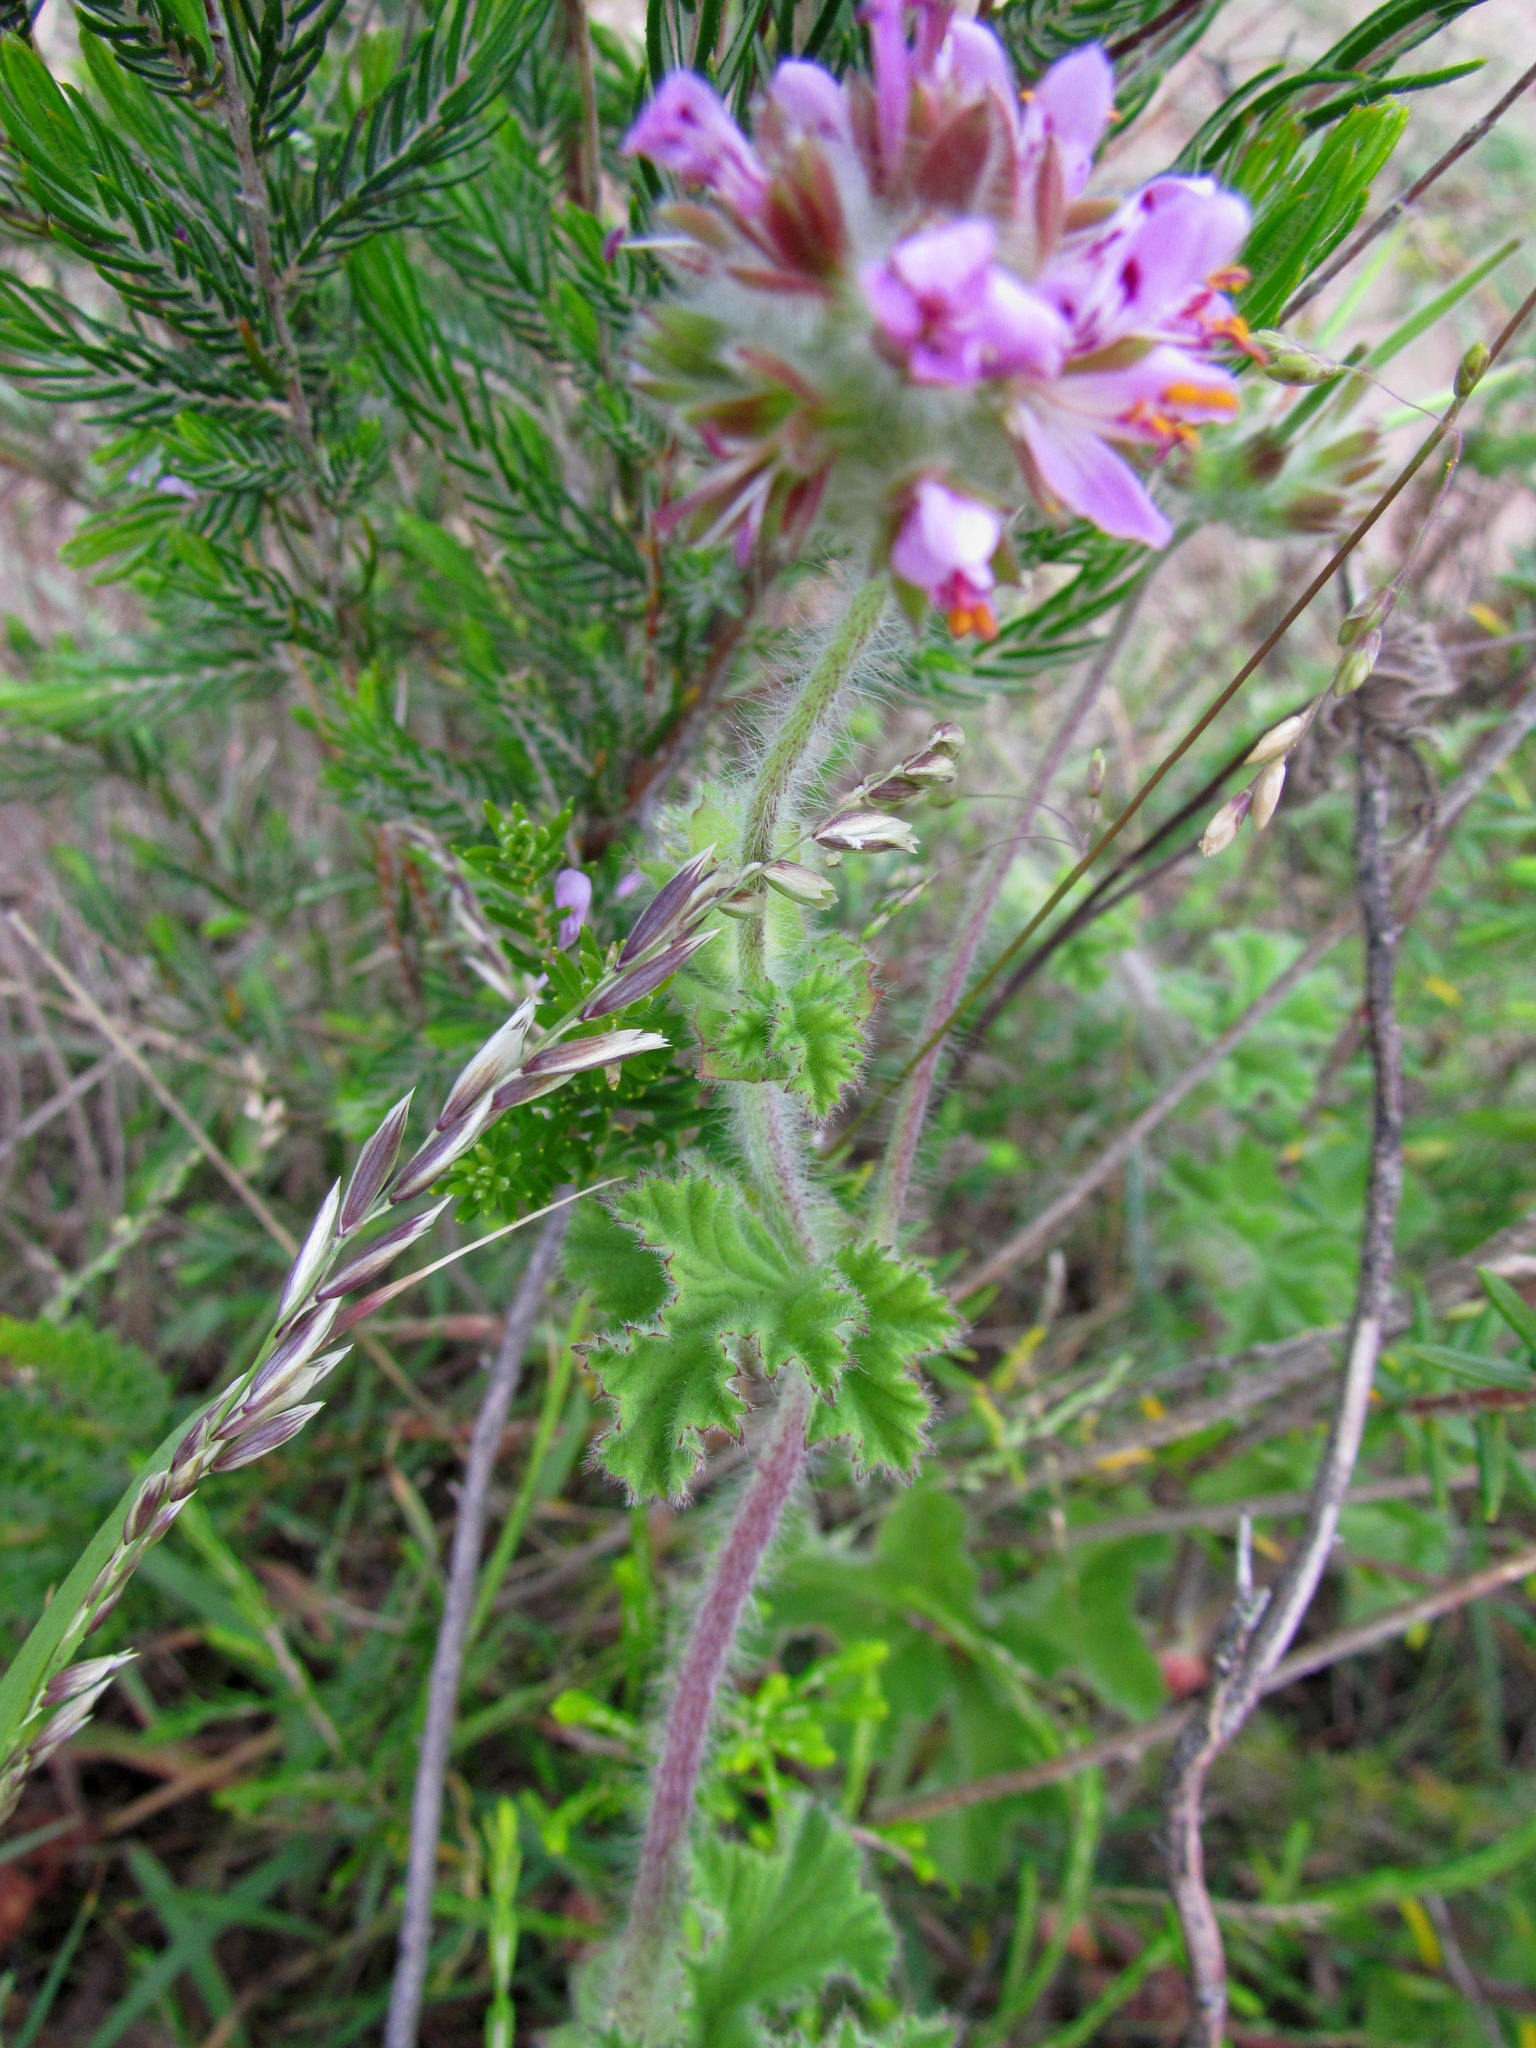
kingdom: Plantae
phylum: Tracheophyta
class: Magnoliopsida
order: Geraniales
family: Geraniaceae
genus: Pelargonium
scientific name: Pelargonium capitatum
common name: Rose scented geranium
